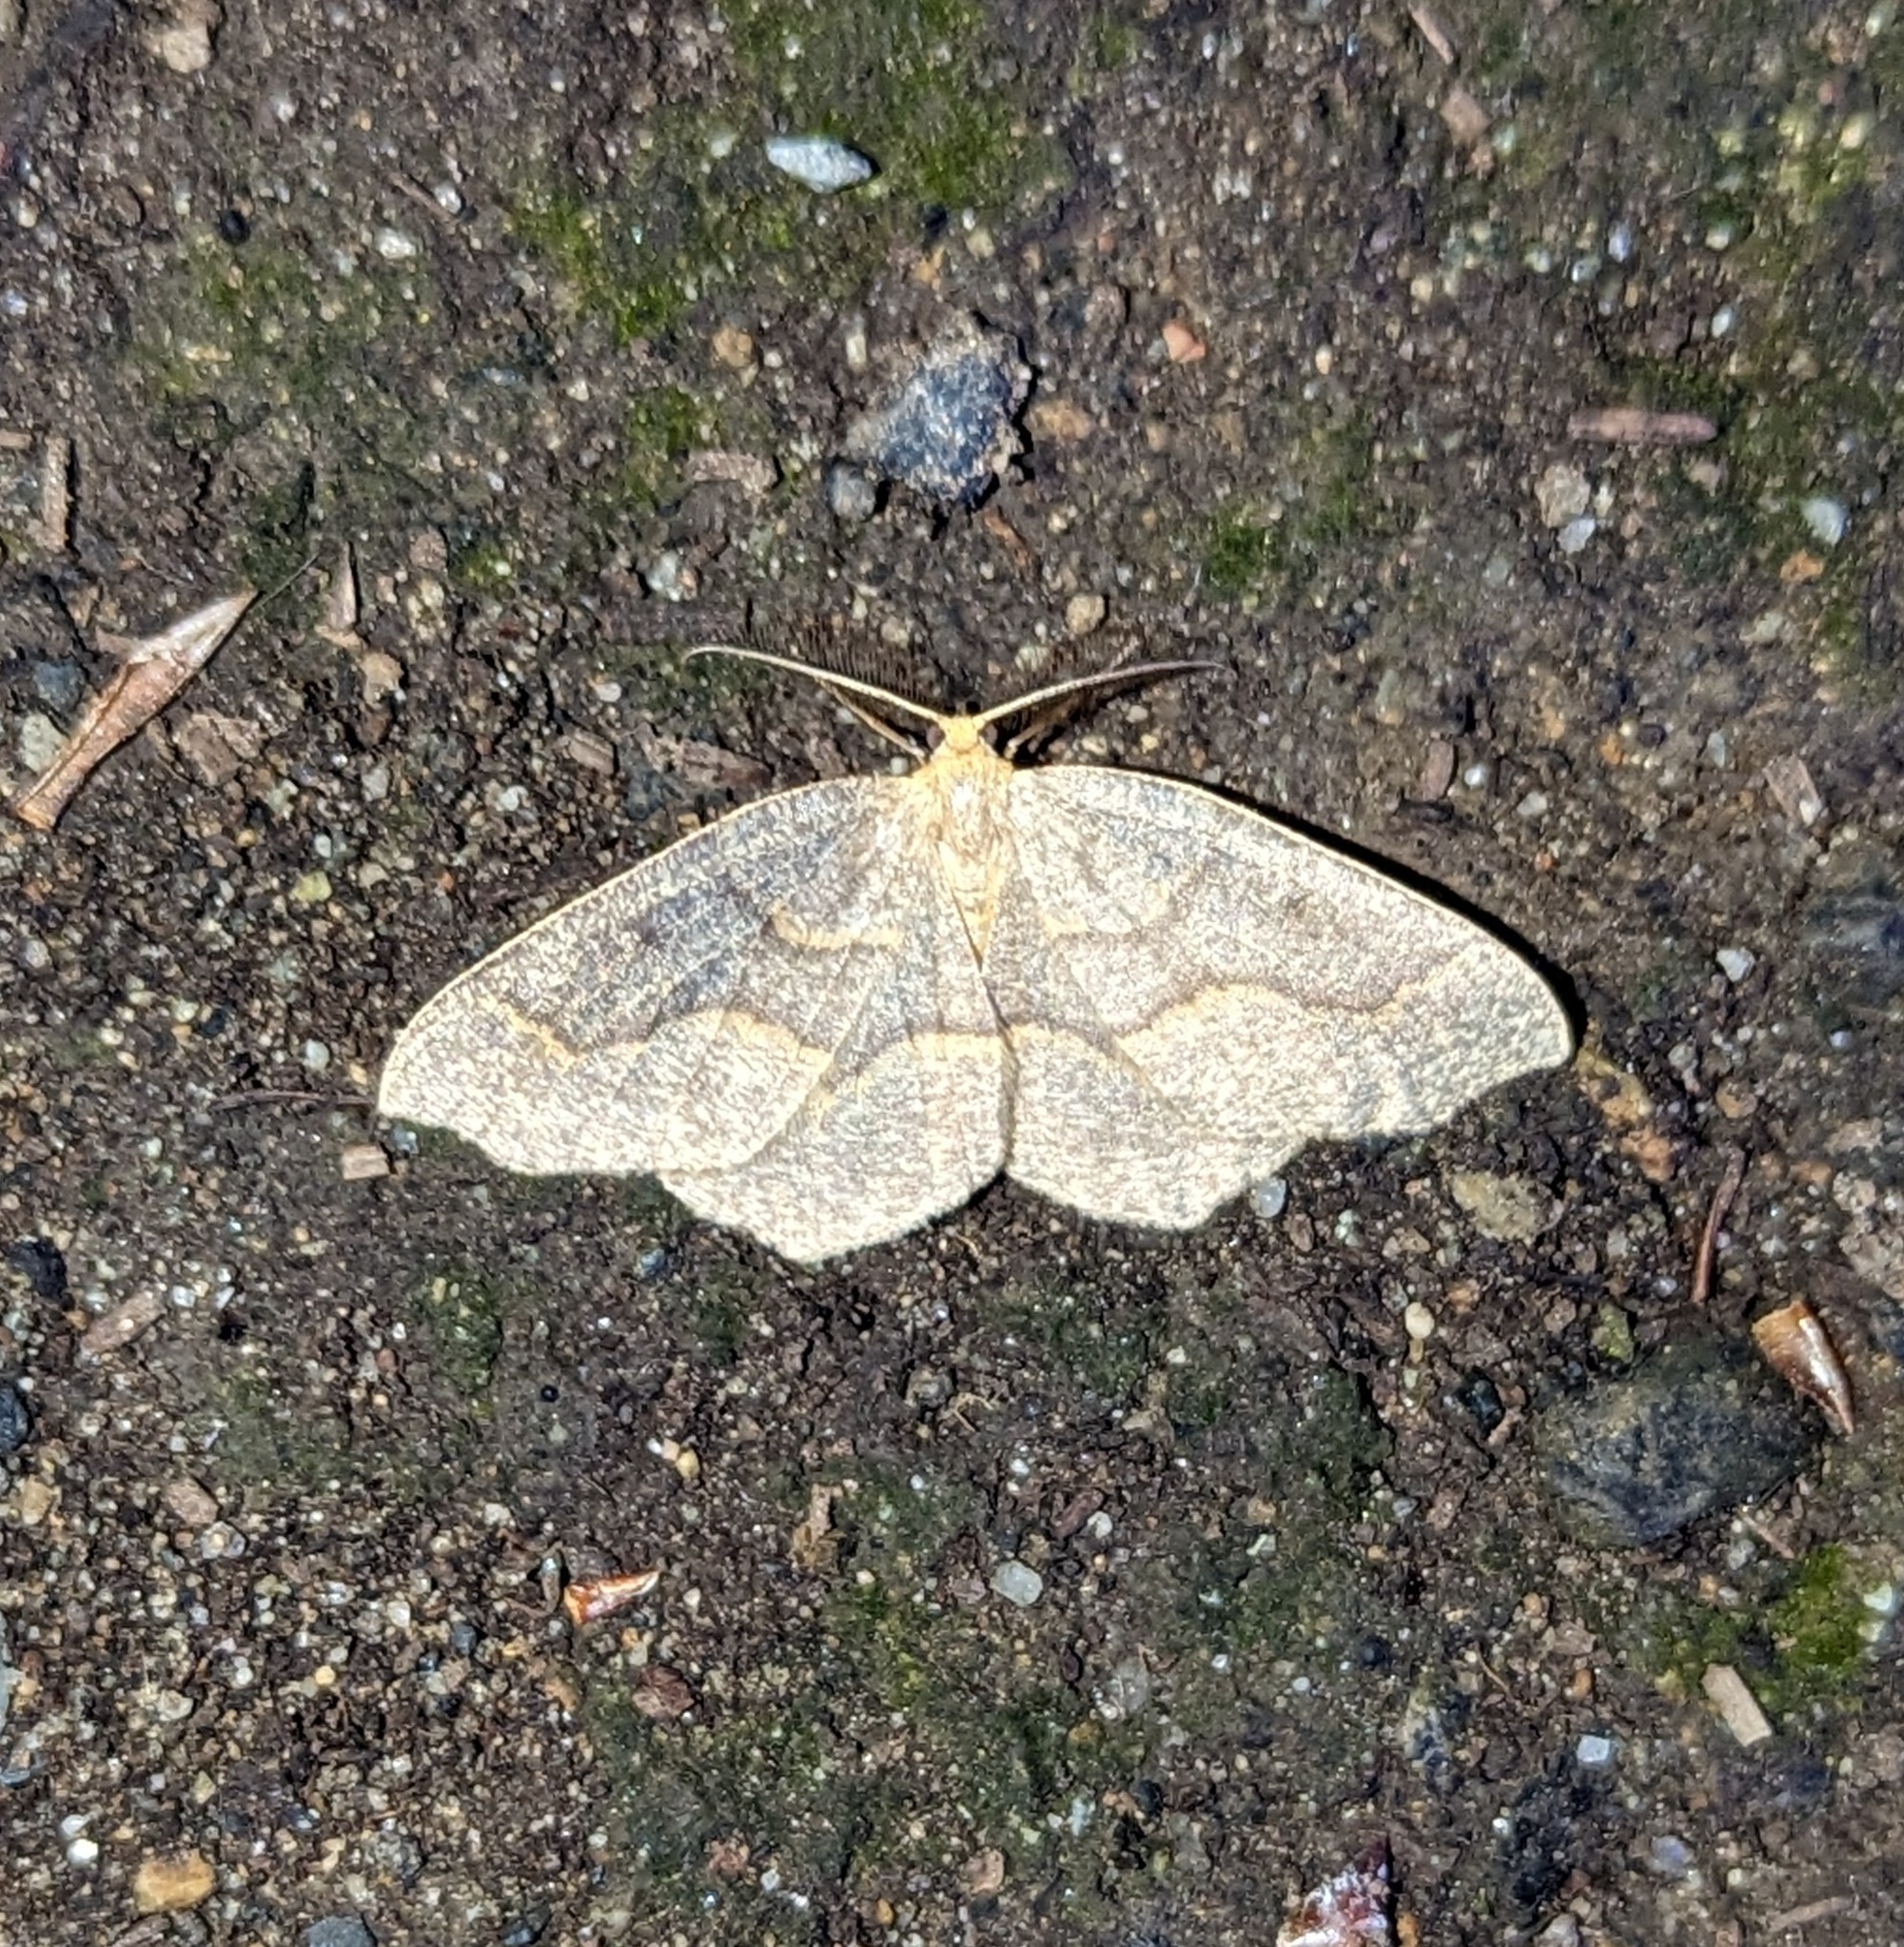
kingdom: Animalia
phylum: Arthropoda
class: Insecta
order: Lepidoptera
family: Geometridae
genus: Lambdina
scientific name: Lambdina fiscellaria
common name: Hemlock looper
